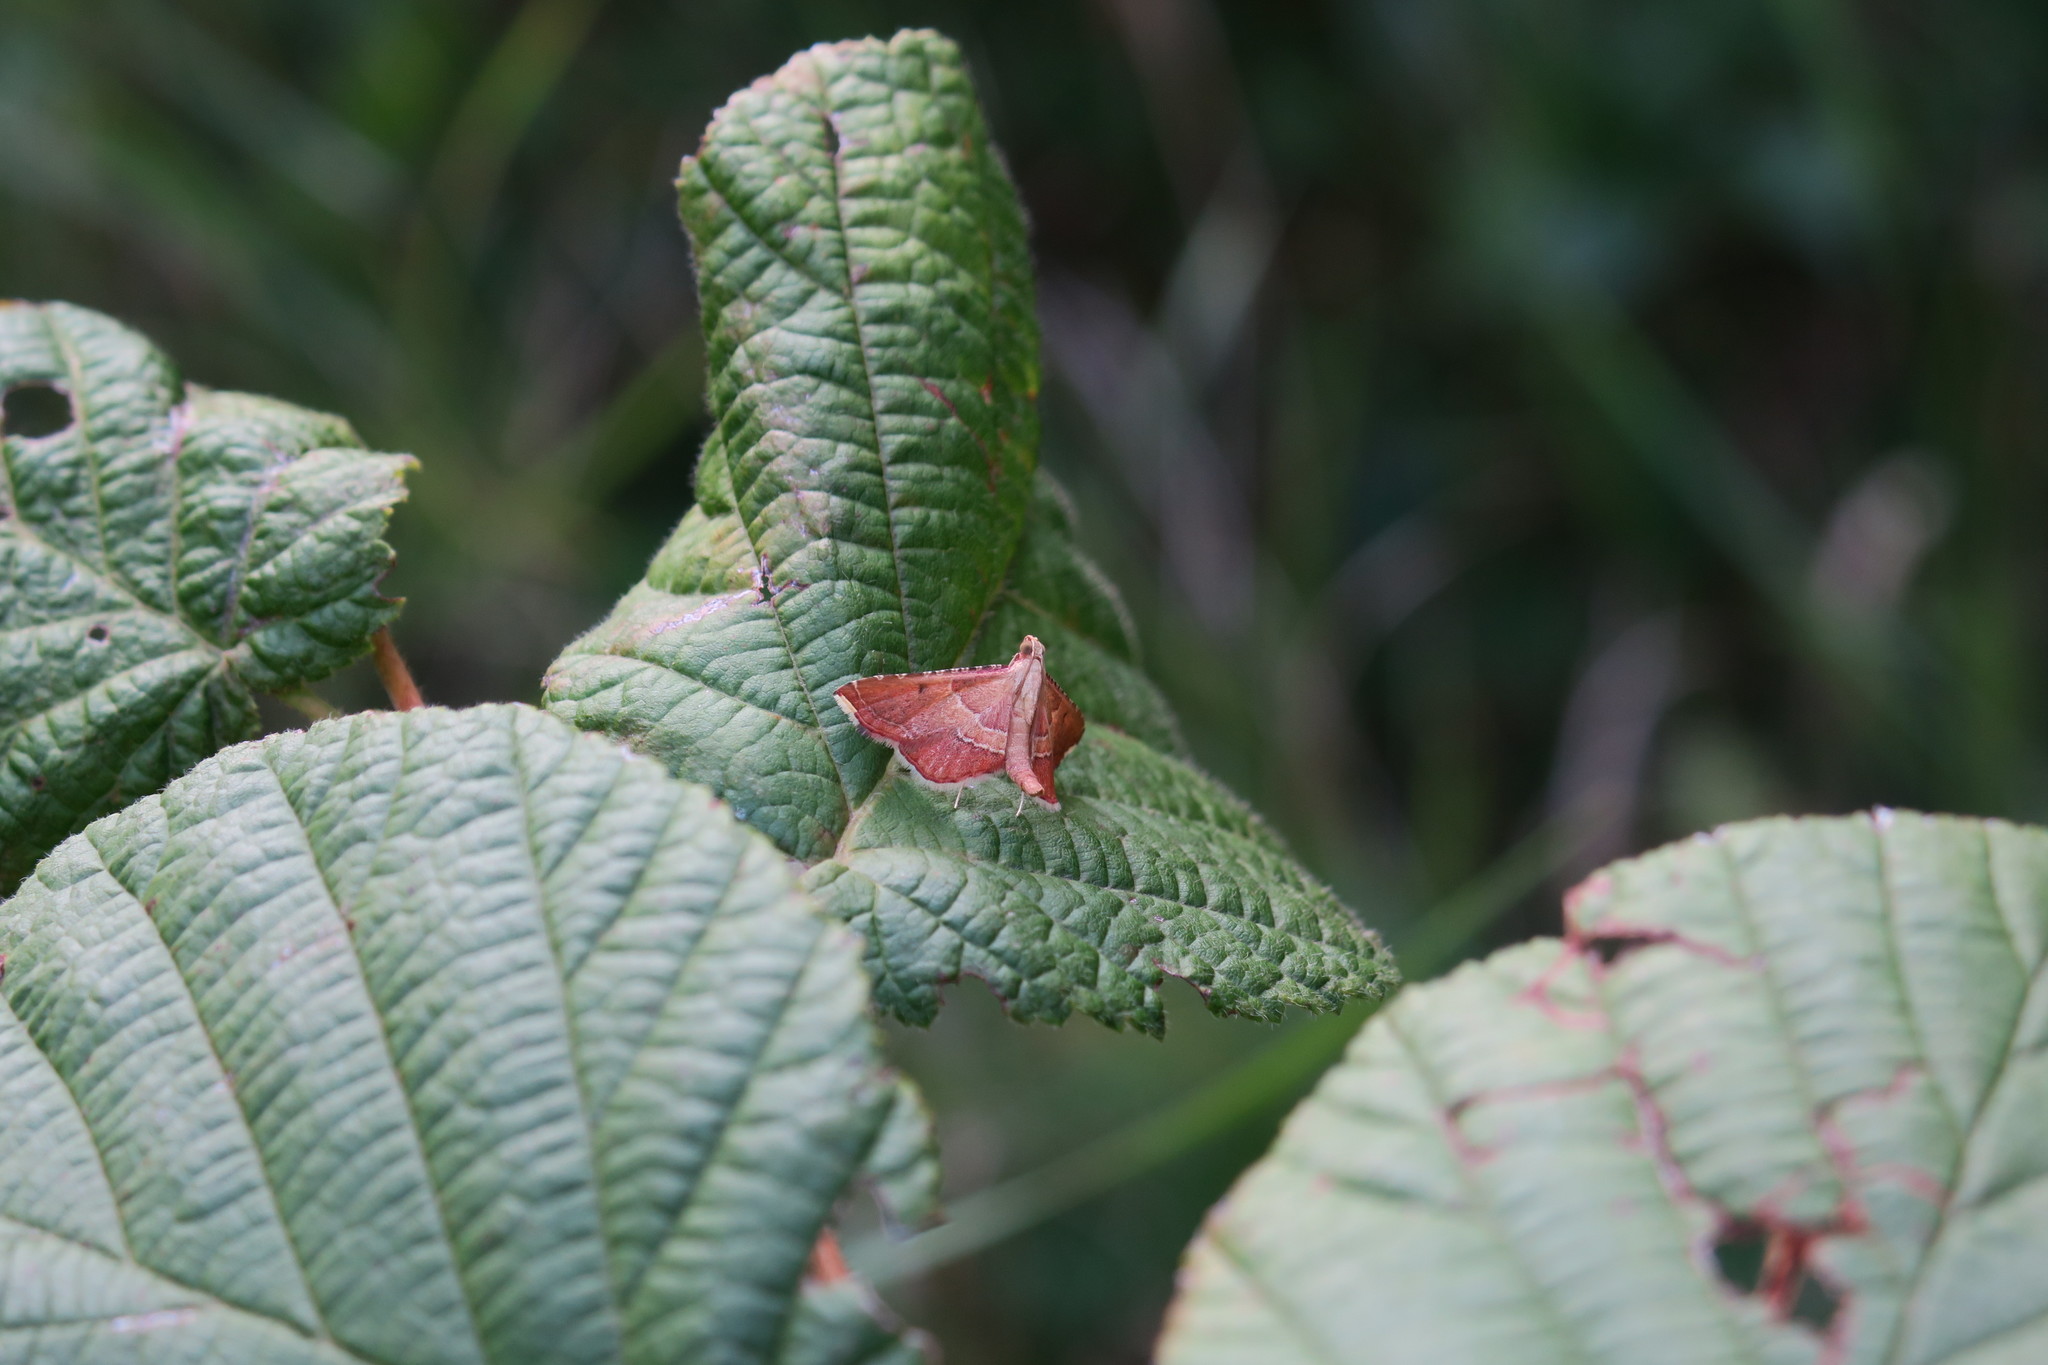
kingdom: Animalia
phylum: Arthropoda
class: Insecta
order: Lepidoptera
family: Pyralidae
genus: Endotricha
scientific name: Endotricha flammealis
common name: Rosy tabby
